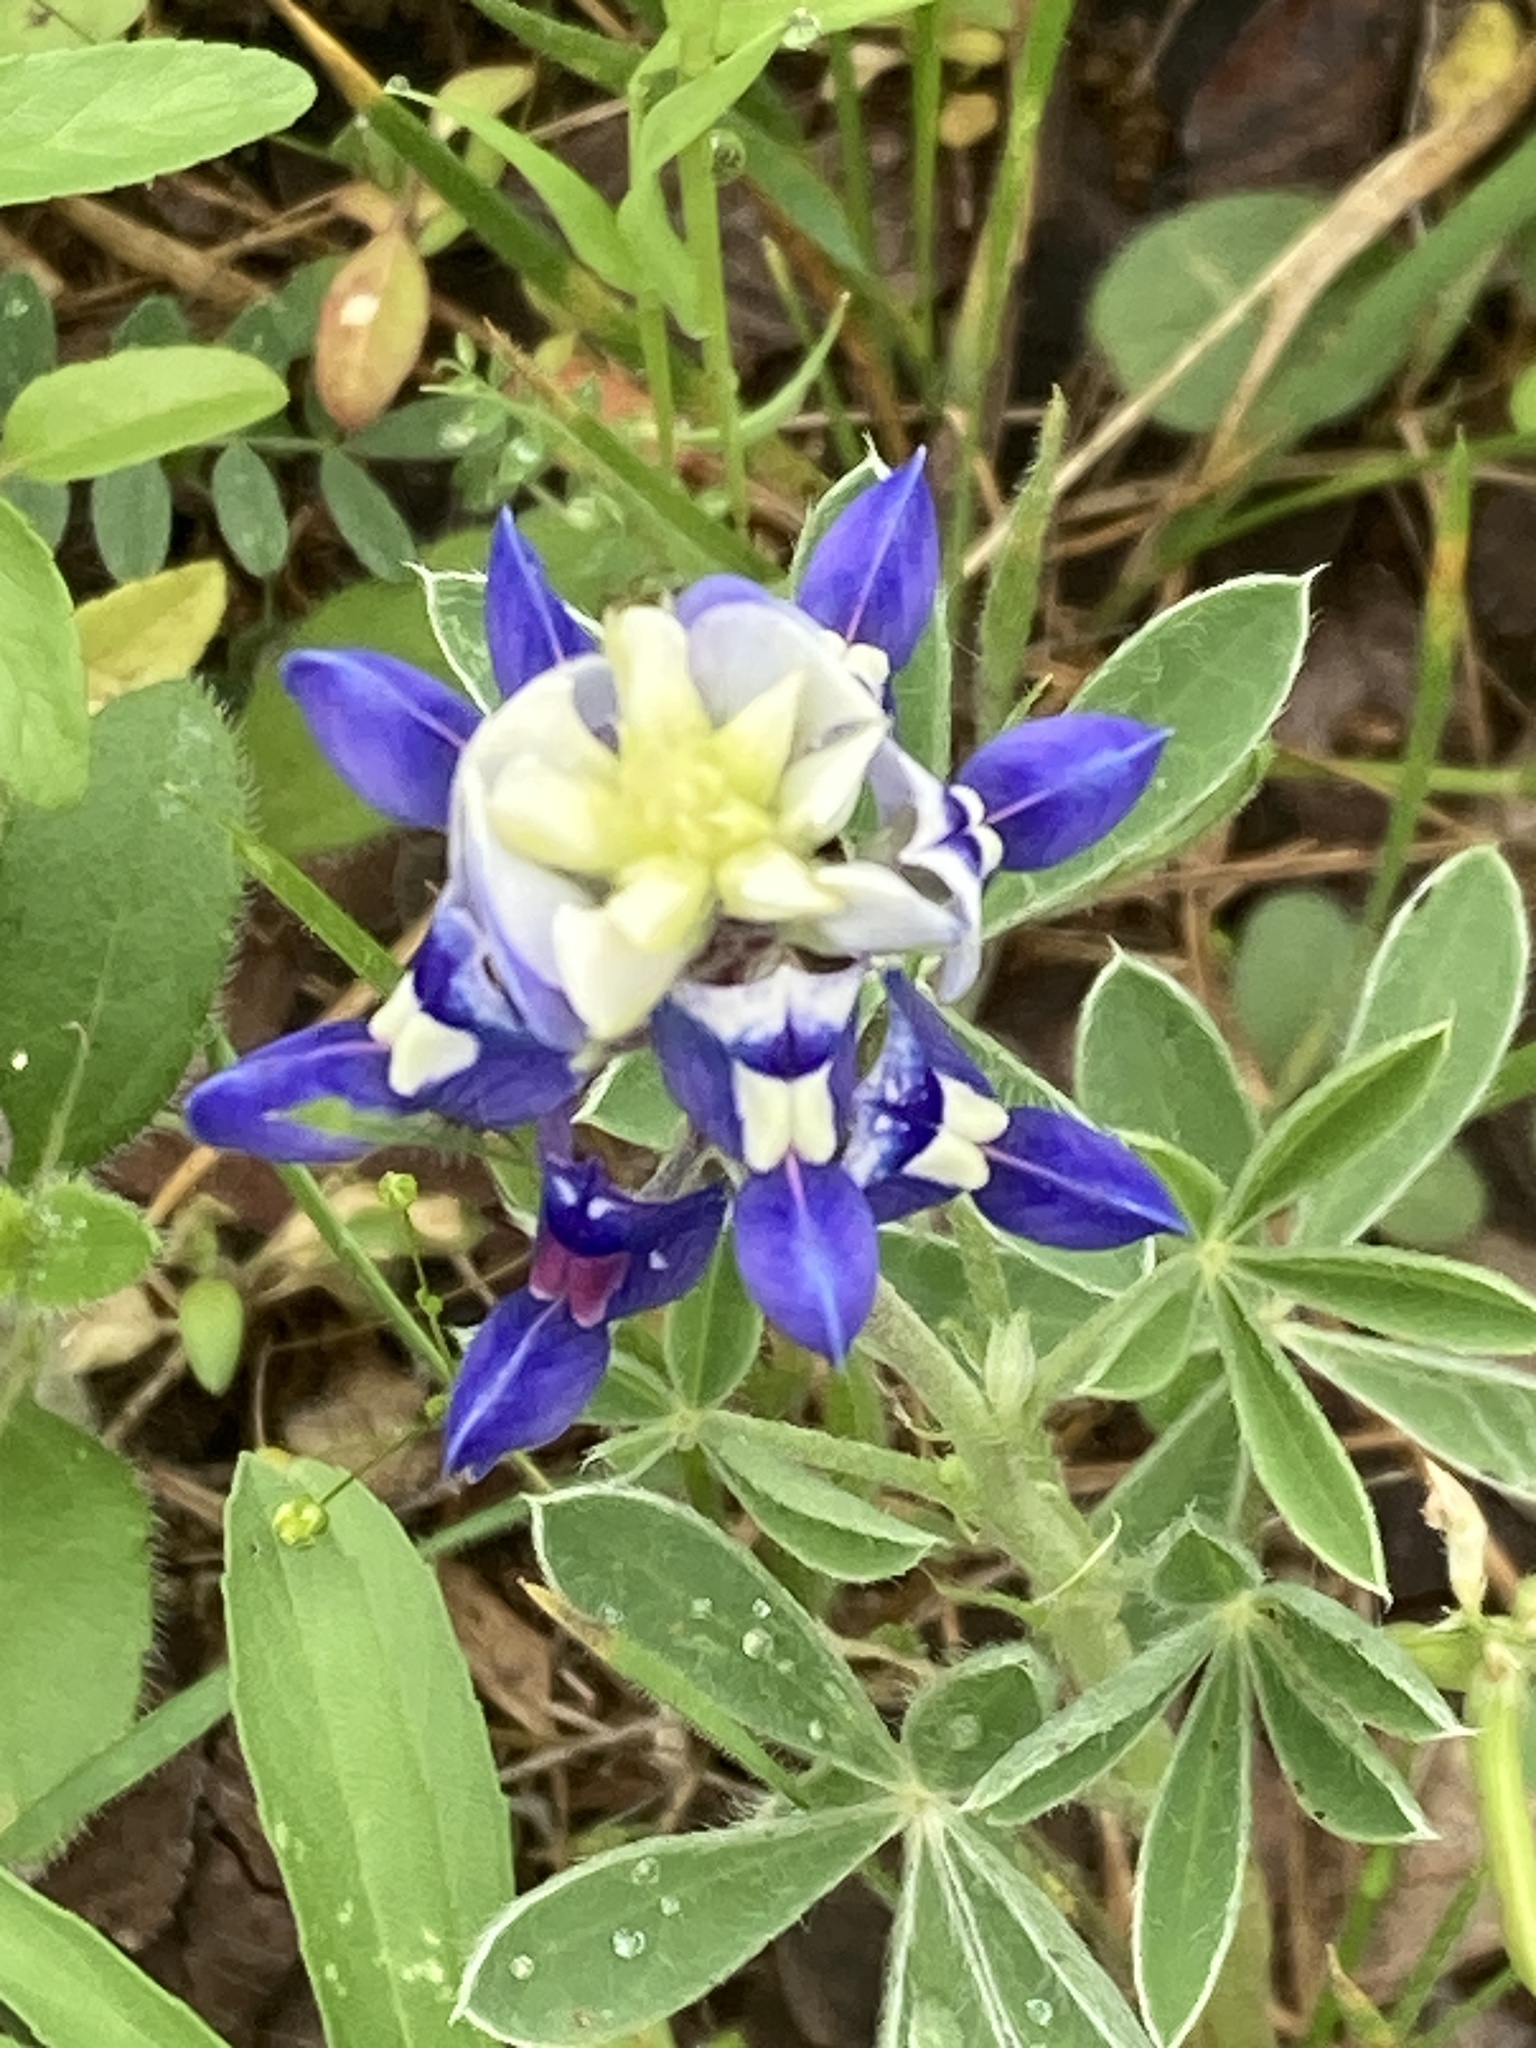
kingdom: Plantae
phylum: Tracheophyta
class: Magnoliopsida
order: Fabales
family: Fabaceae
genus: Lupinus
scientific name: Lupinus texensis
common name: Texas bluebonnet
